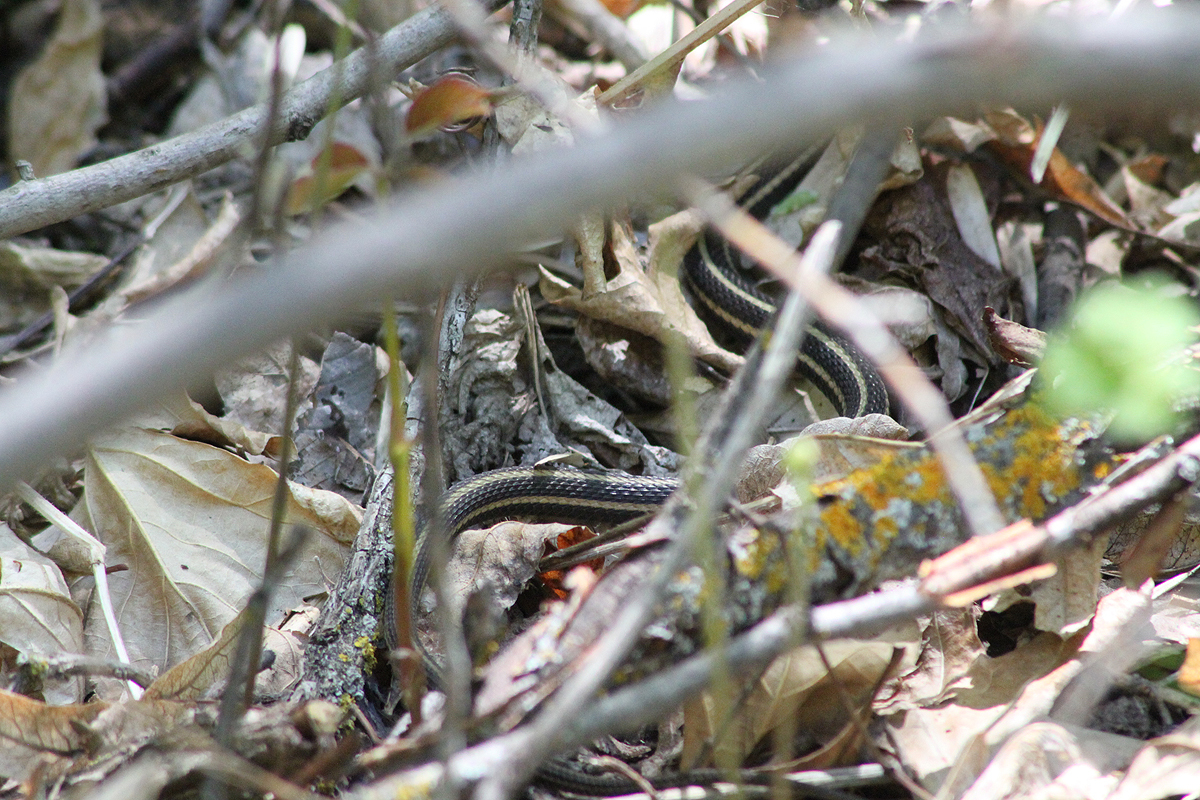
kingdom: Animalia
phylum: Chordata
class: Squamata
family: Colubridae
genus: Thamnophis
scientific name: Thamnophis sirtalis
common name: Common garter snake
